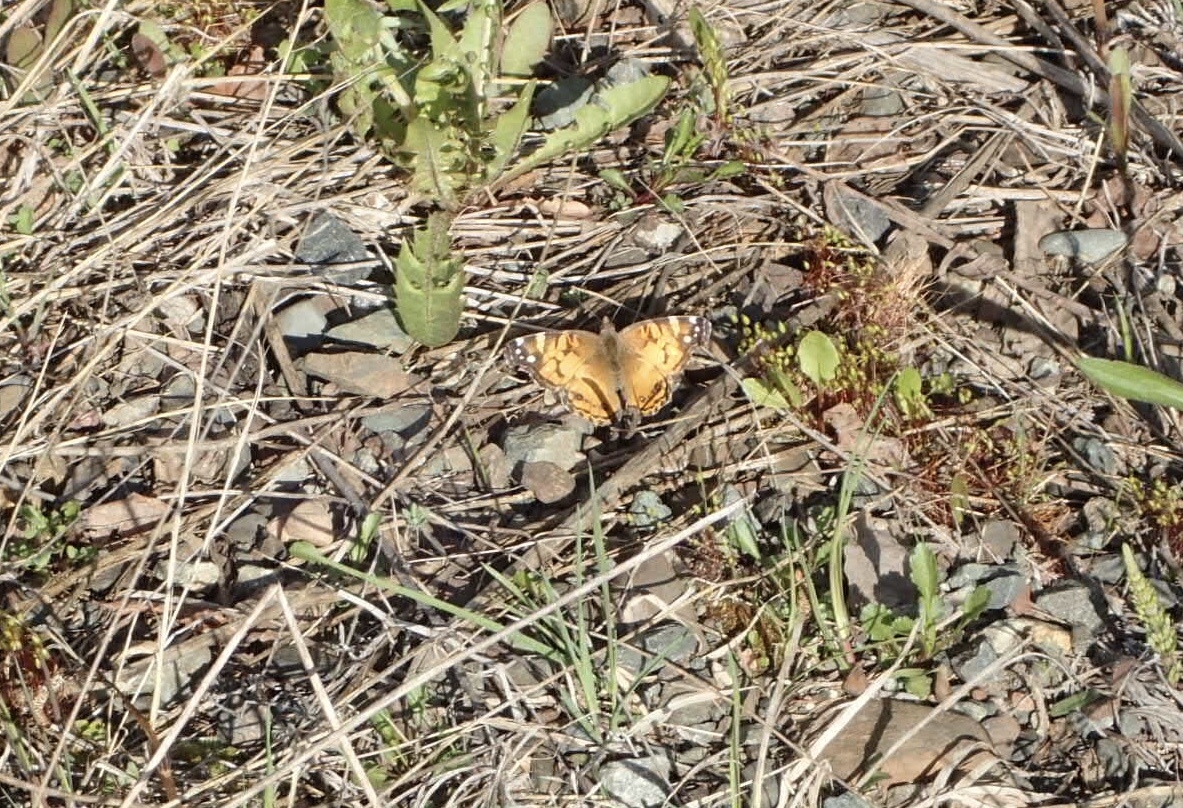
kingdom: Animalia
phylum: Arthropoda
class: Insecta
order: Lepidoptera
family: Nymphalidae
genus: Vanessa
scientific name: Vanessa virginiensis
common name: American lady
